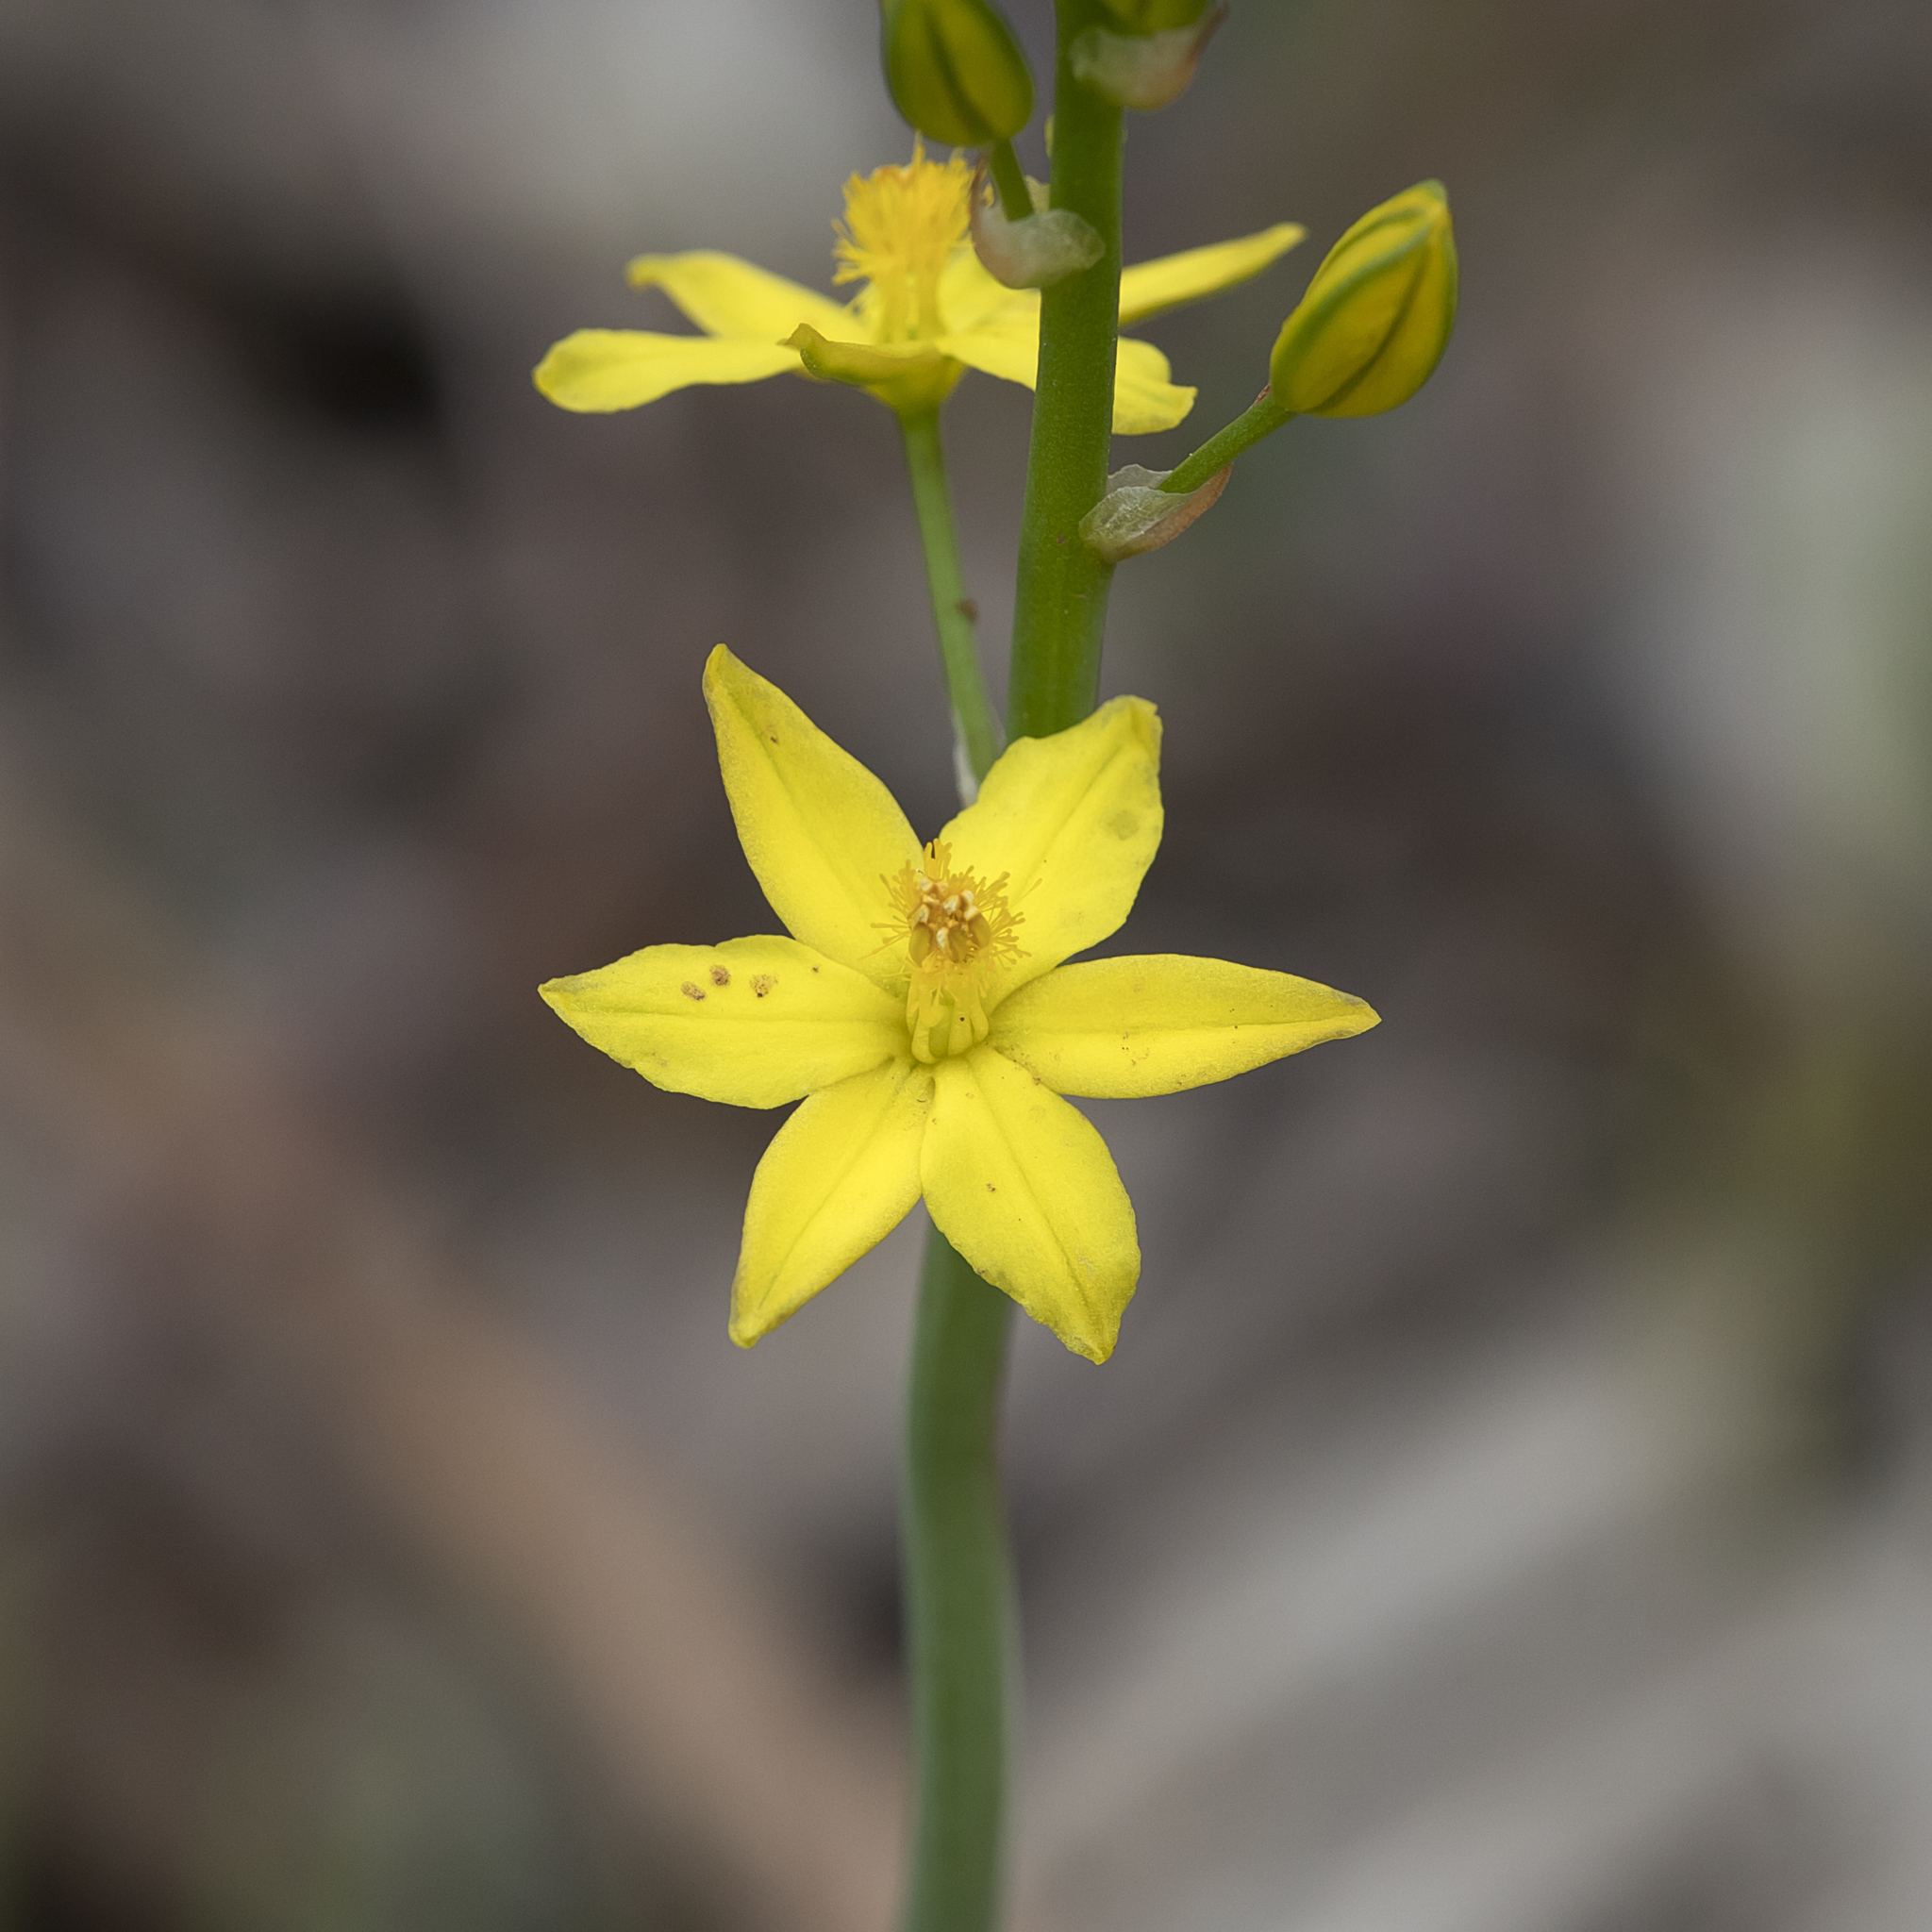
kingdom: Plantae
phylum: Tracheophyta
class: Liliopsida
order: Asparagales
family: Asphodelaceae
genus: Bulbine
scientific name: Bulbine bulbosa
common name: Golden-lily
